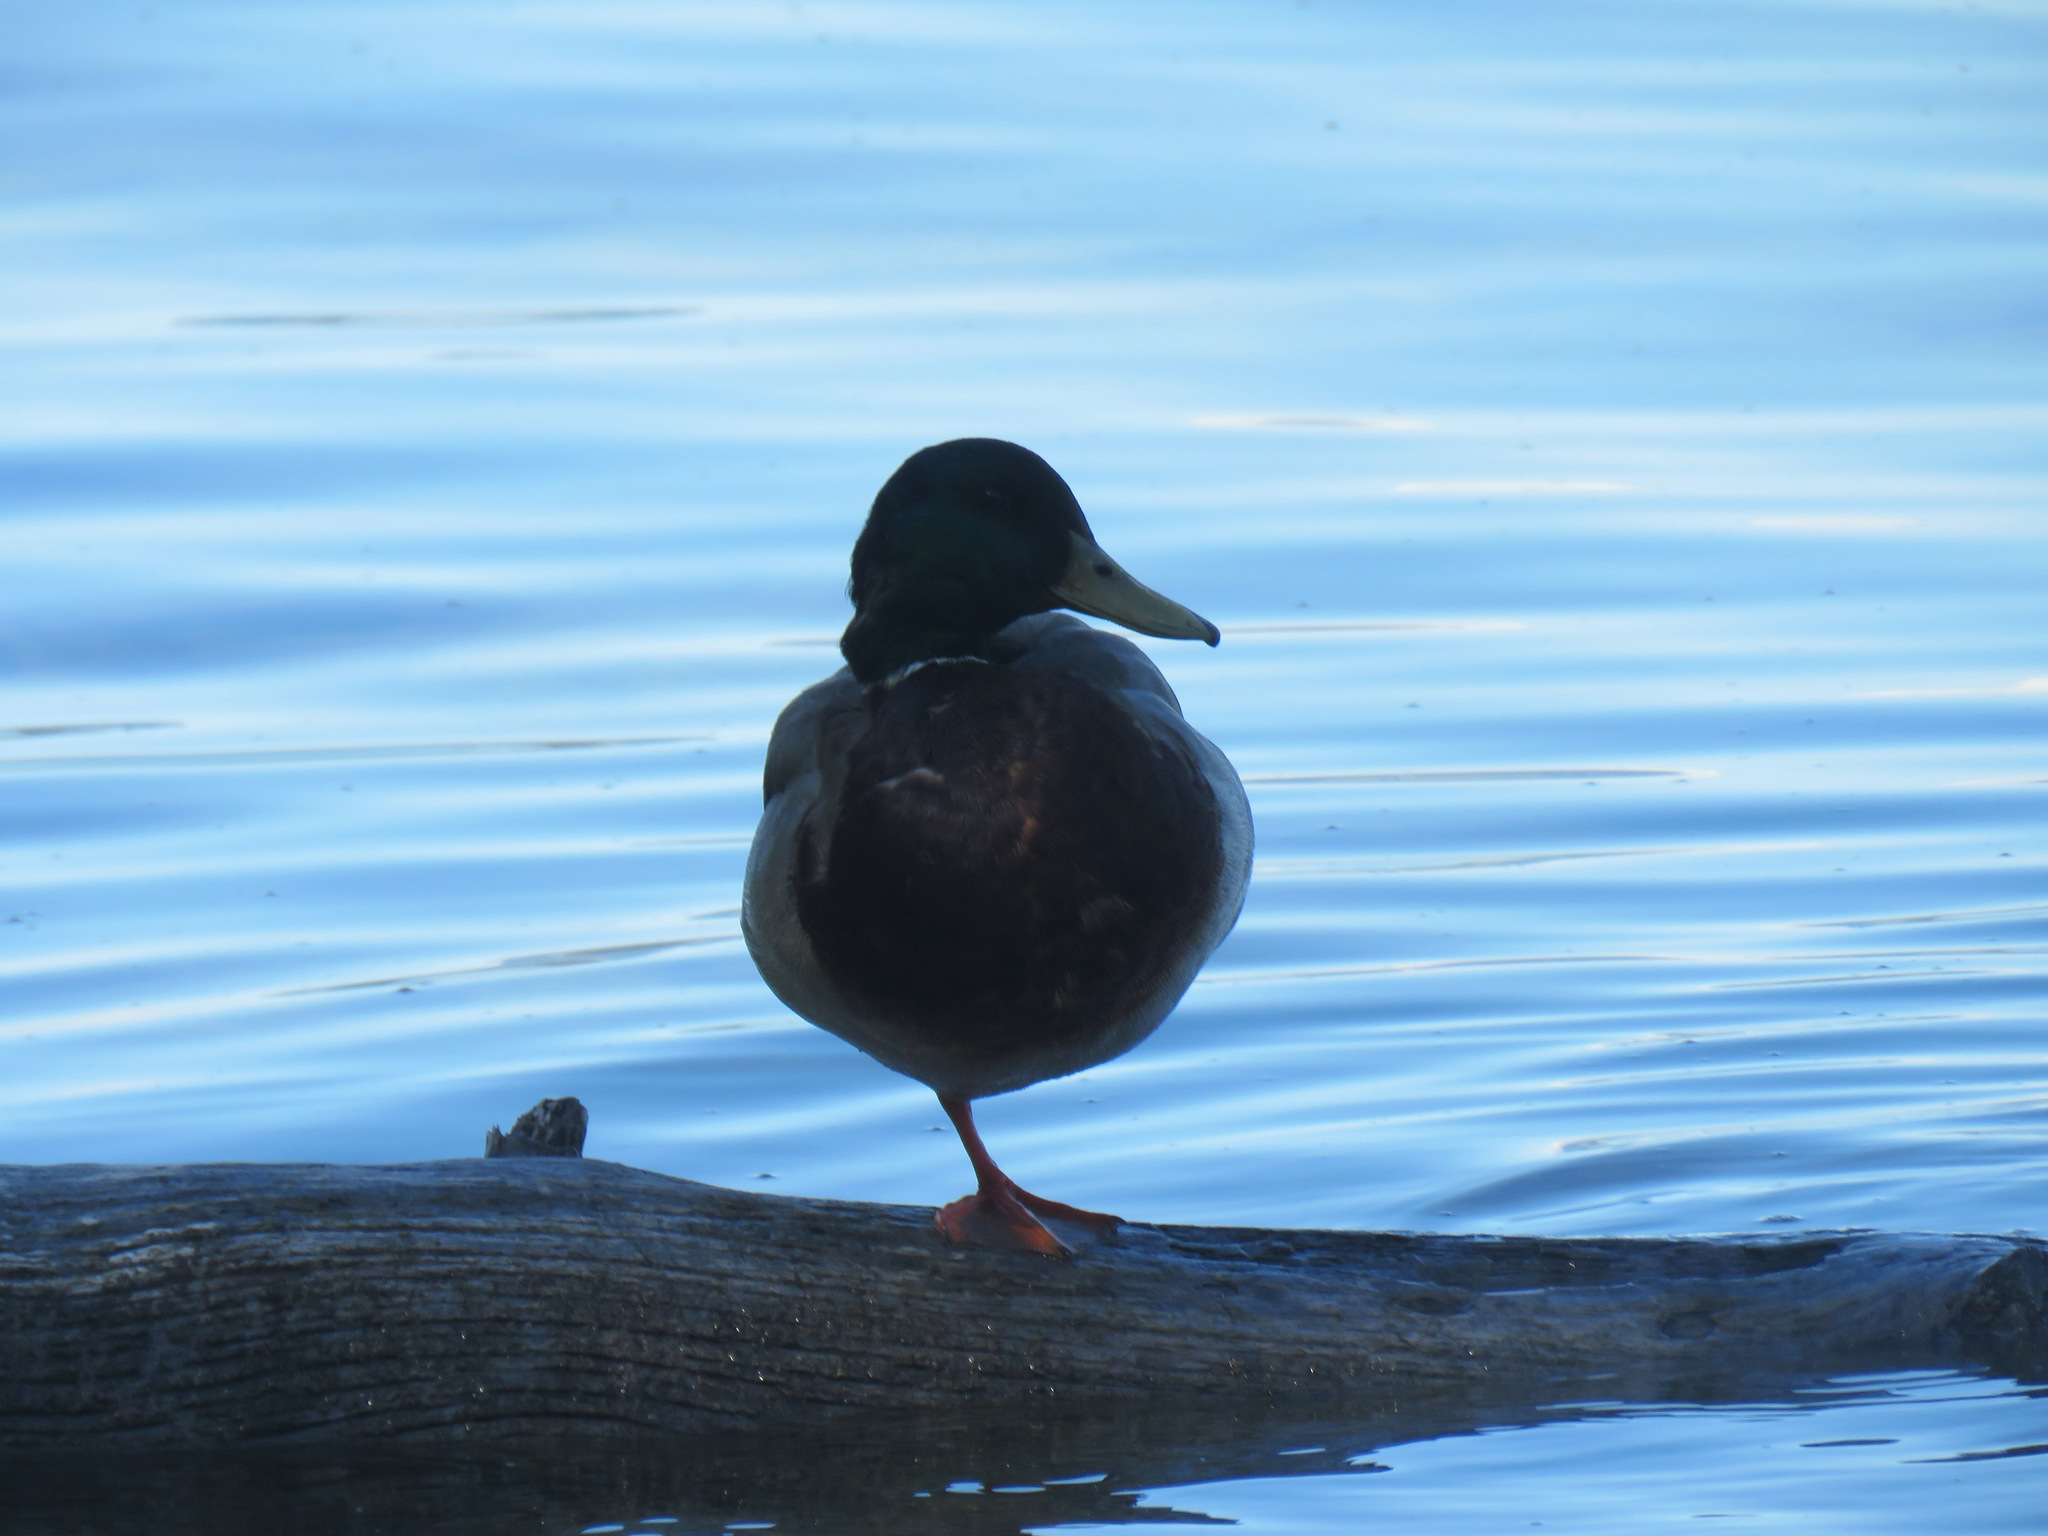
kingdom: Animalia
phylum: Chordata
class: Aves
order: Anseriformes
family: Anatidae
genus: Anas
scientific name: Anas platyrhynchos
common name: Mallard
